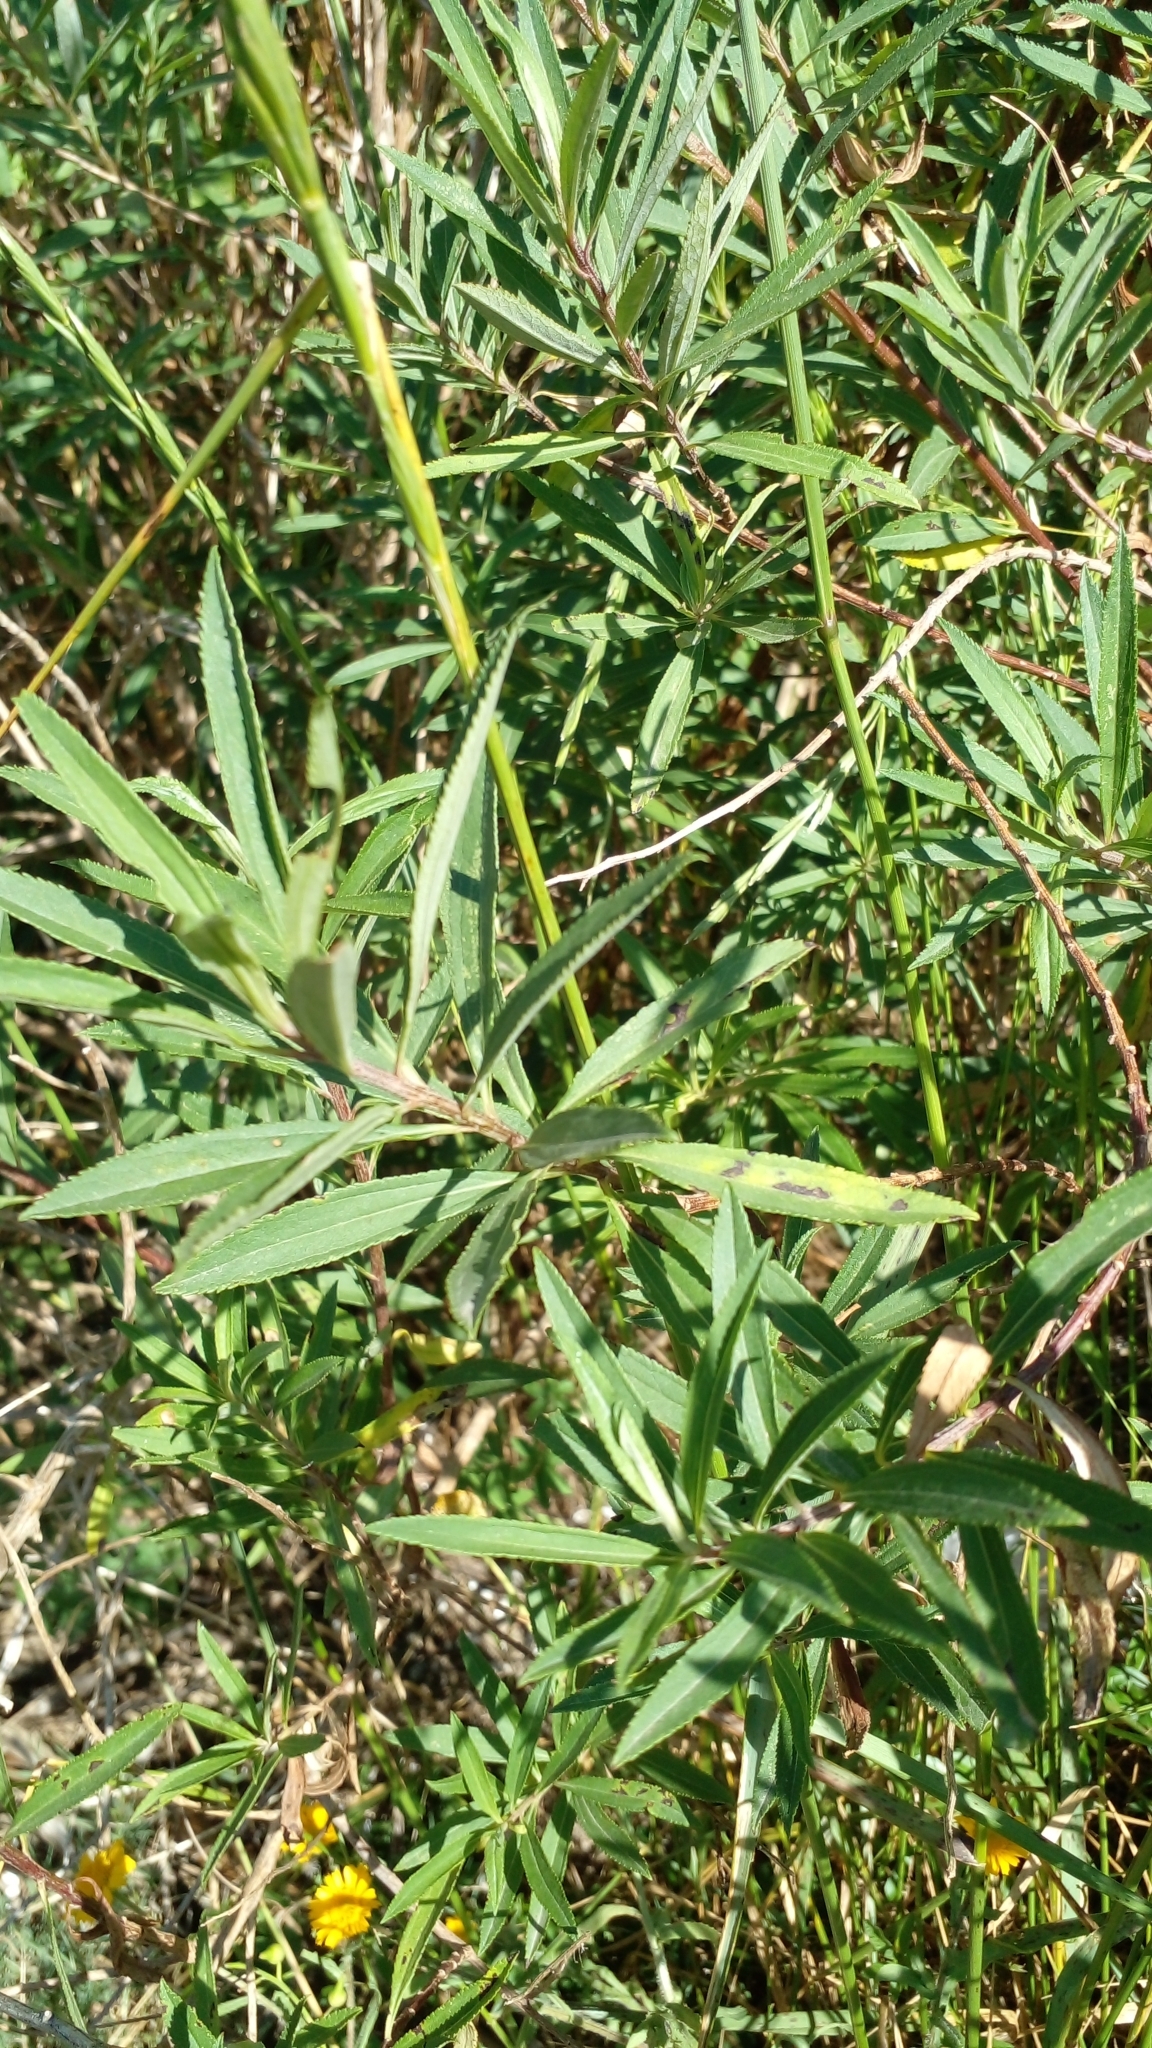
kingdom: Plantae
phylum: Tracheophyta
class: Magnoliopsida
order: Asterales
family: Asteraceae
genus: Baccharis
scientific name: Baccharis punctulata
